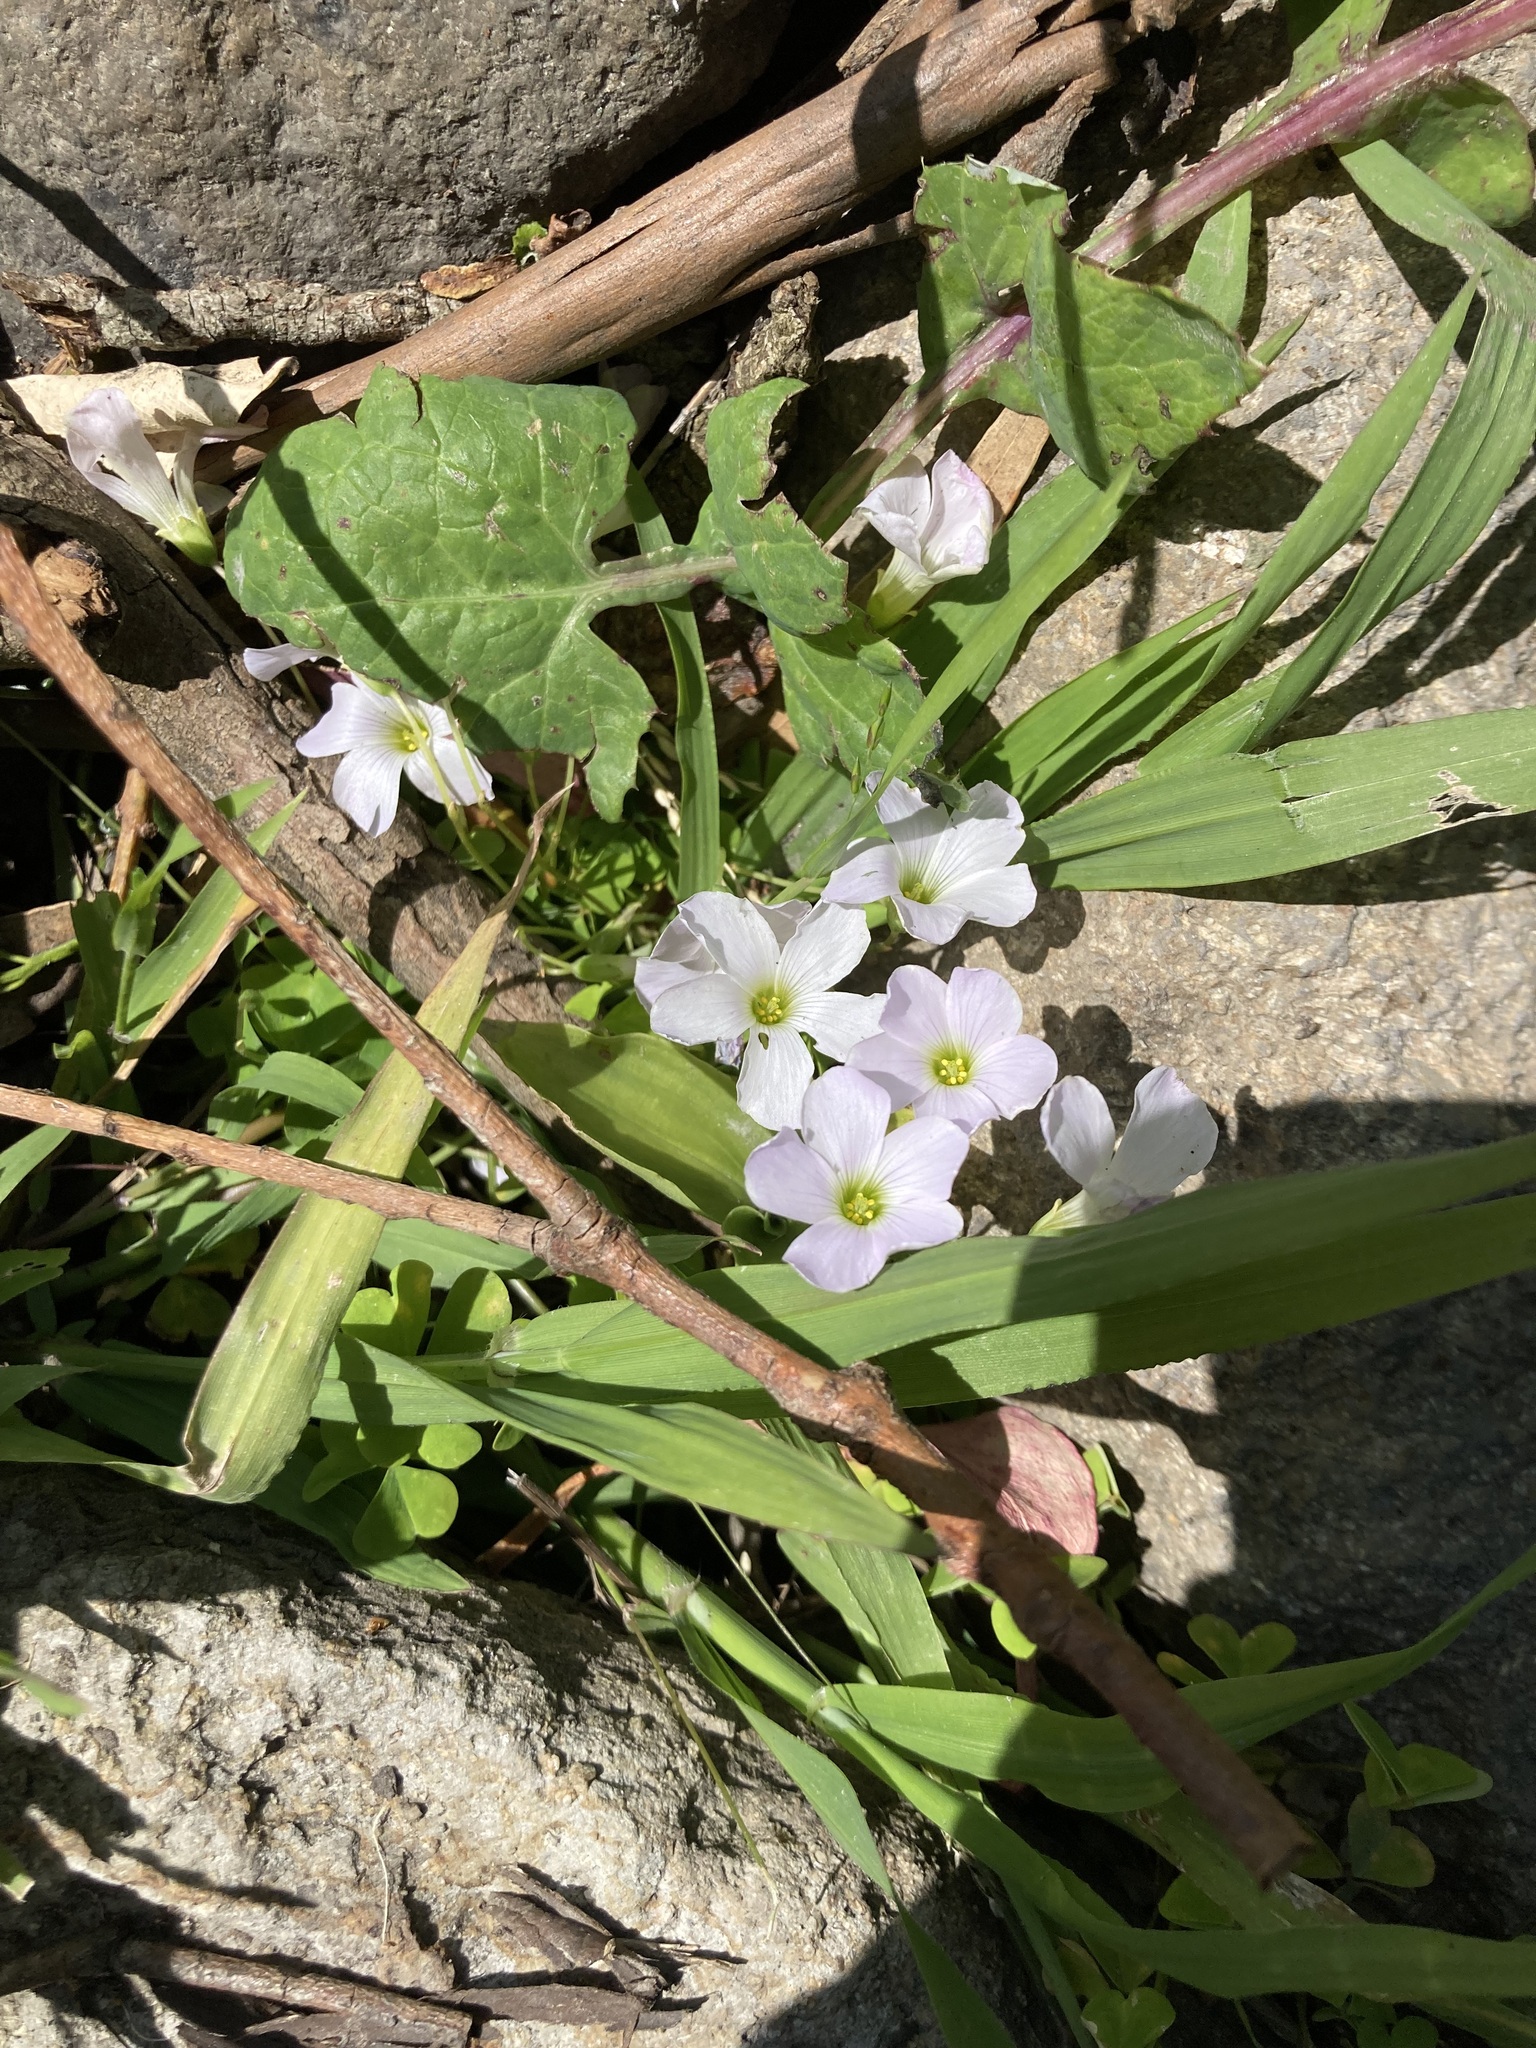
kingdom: Plantae
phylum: Tracheophyta
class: Magnoliopsida
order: Oxalidales
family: Oxalidaceae
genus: Oxalis
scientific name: Oxalis incarnata
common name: Pale pink-sorrel
